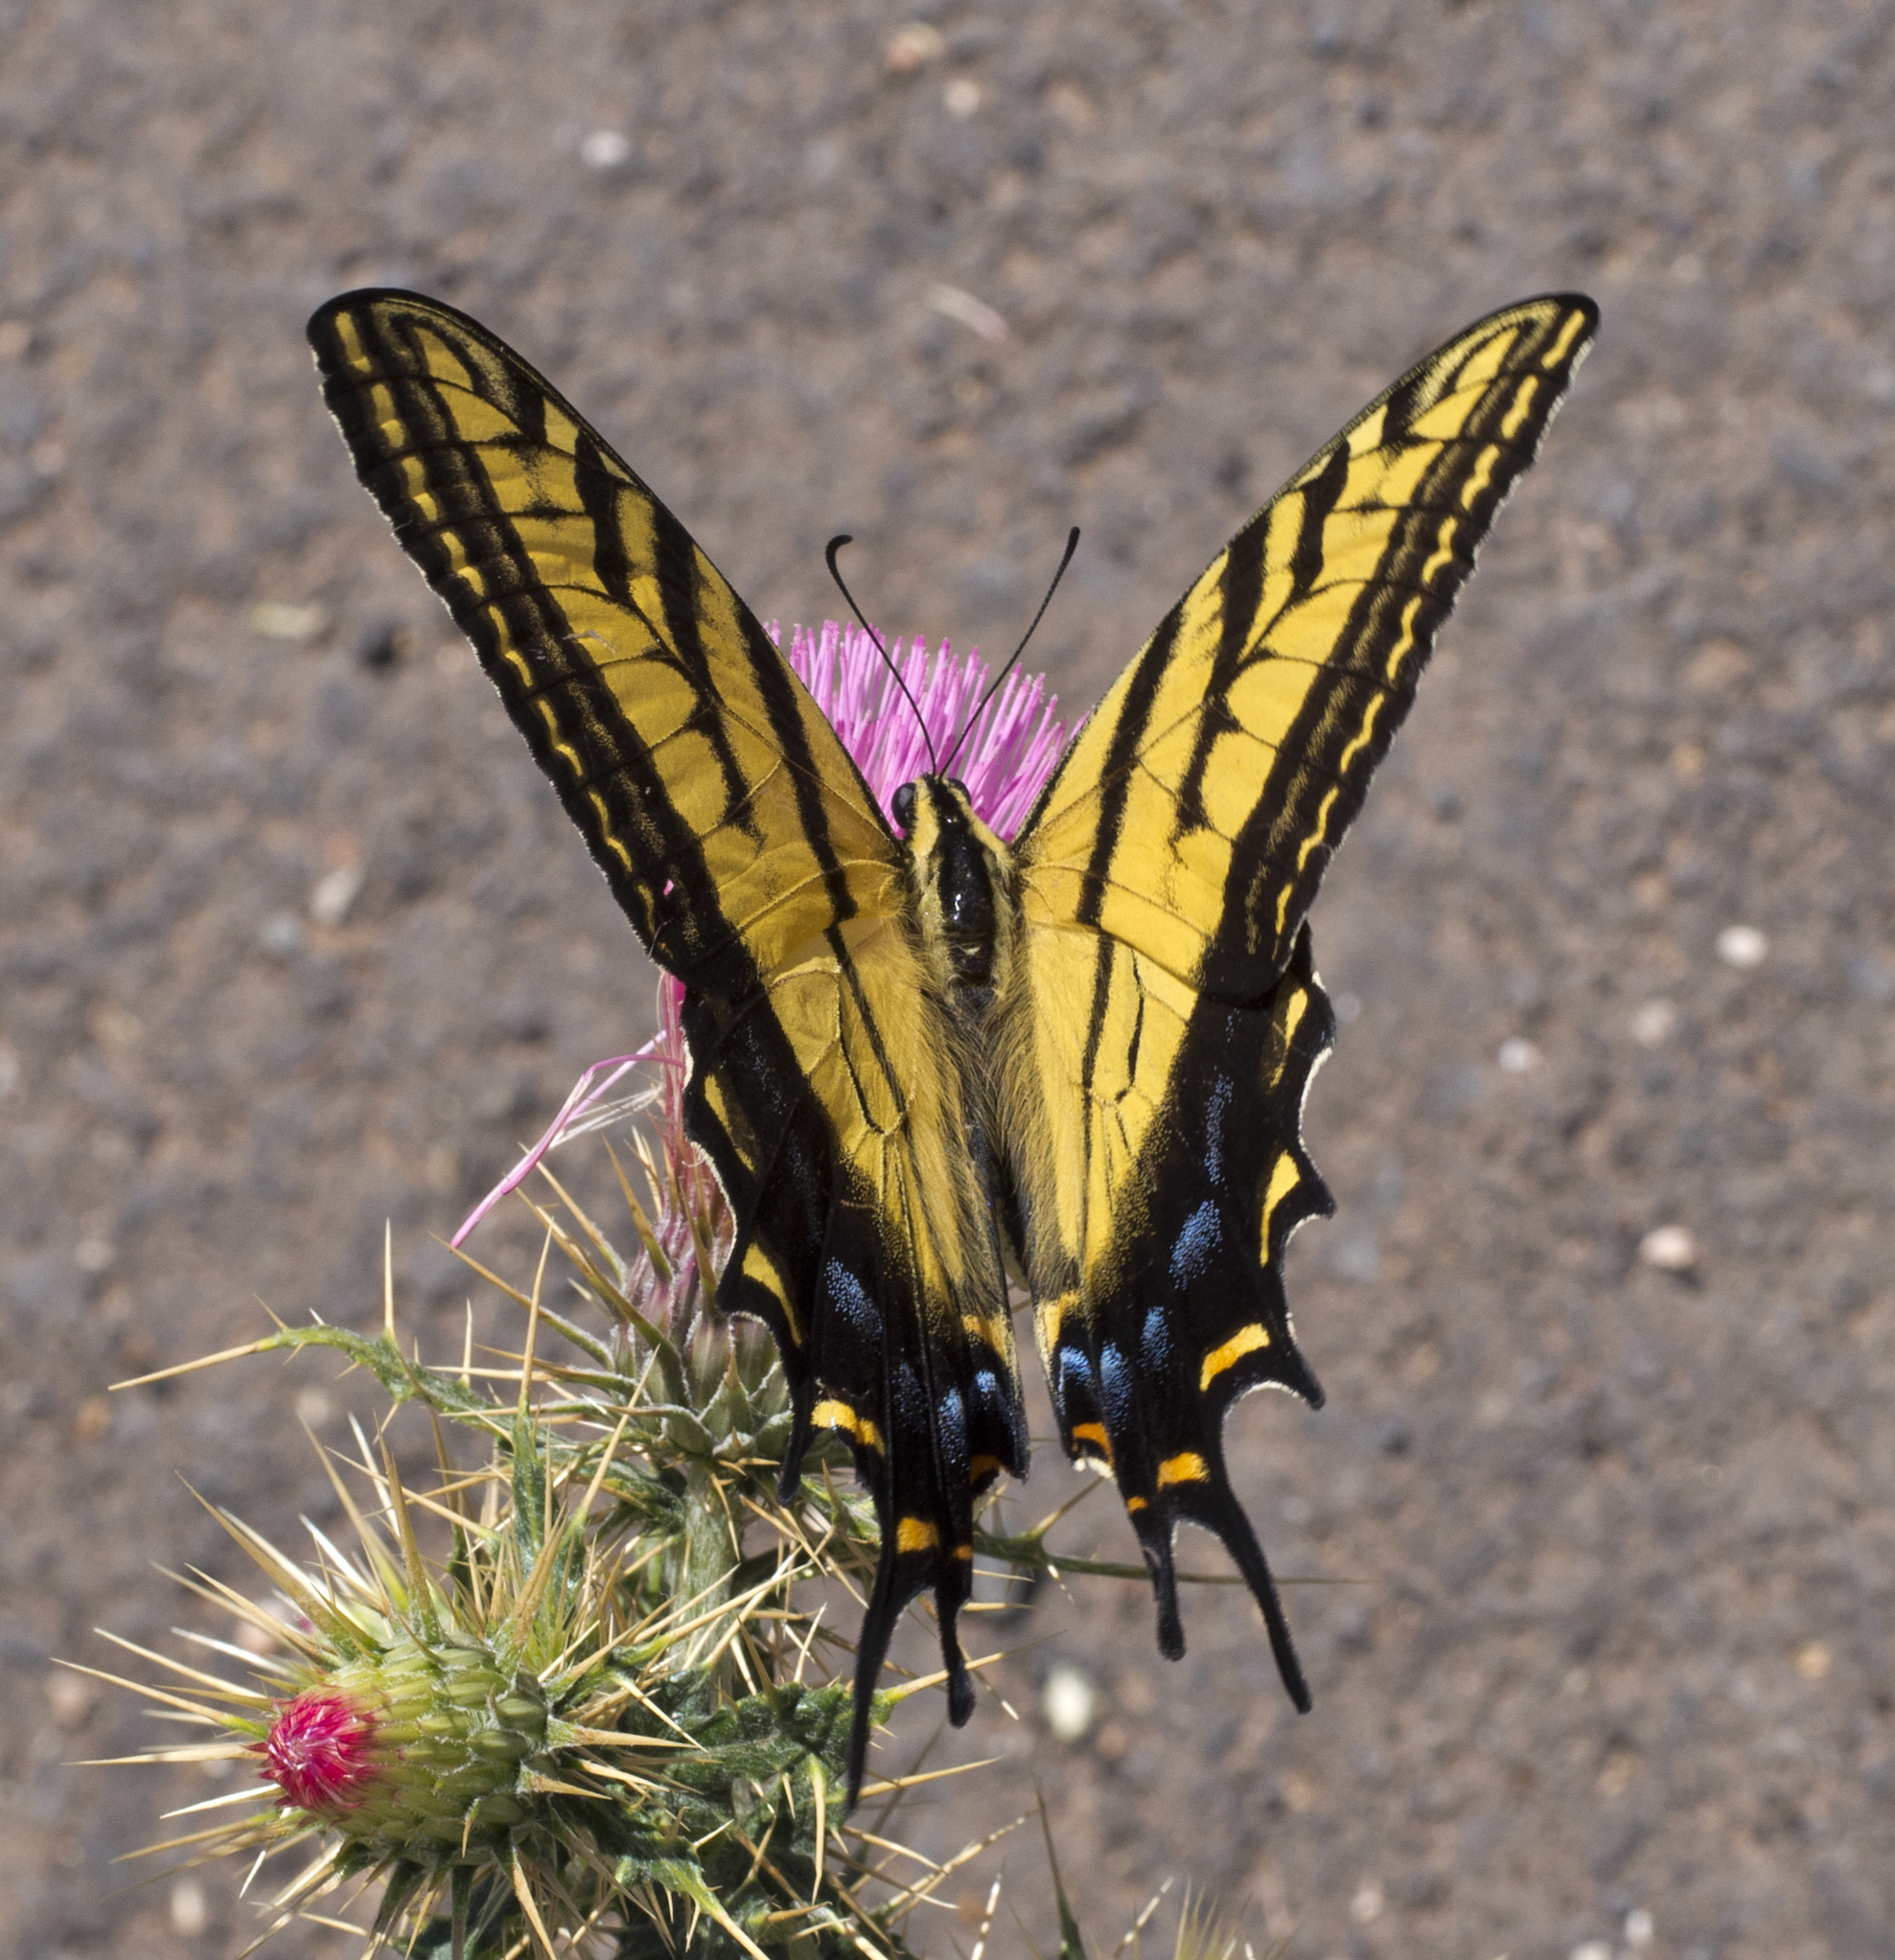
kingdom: Animalia
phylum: Arthropoda
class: Insecta
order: Lepidoptera
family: Papilionidae
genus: Papilio
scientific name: Papilio multicaudata
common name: Two-tailed tiger swallowtail
